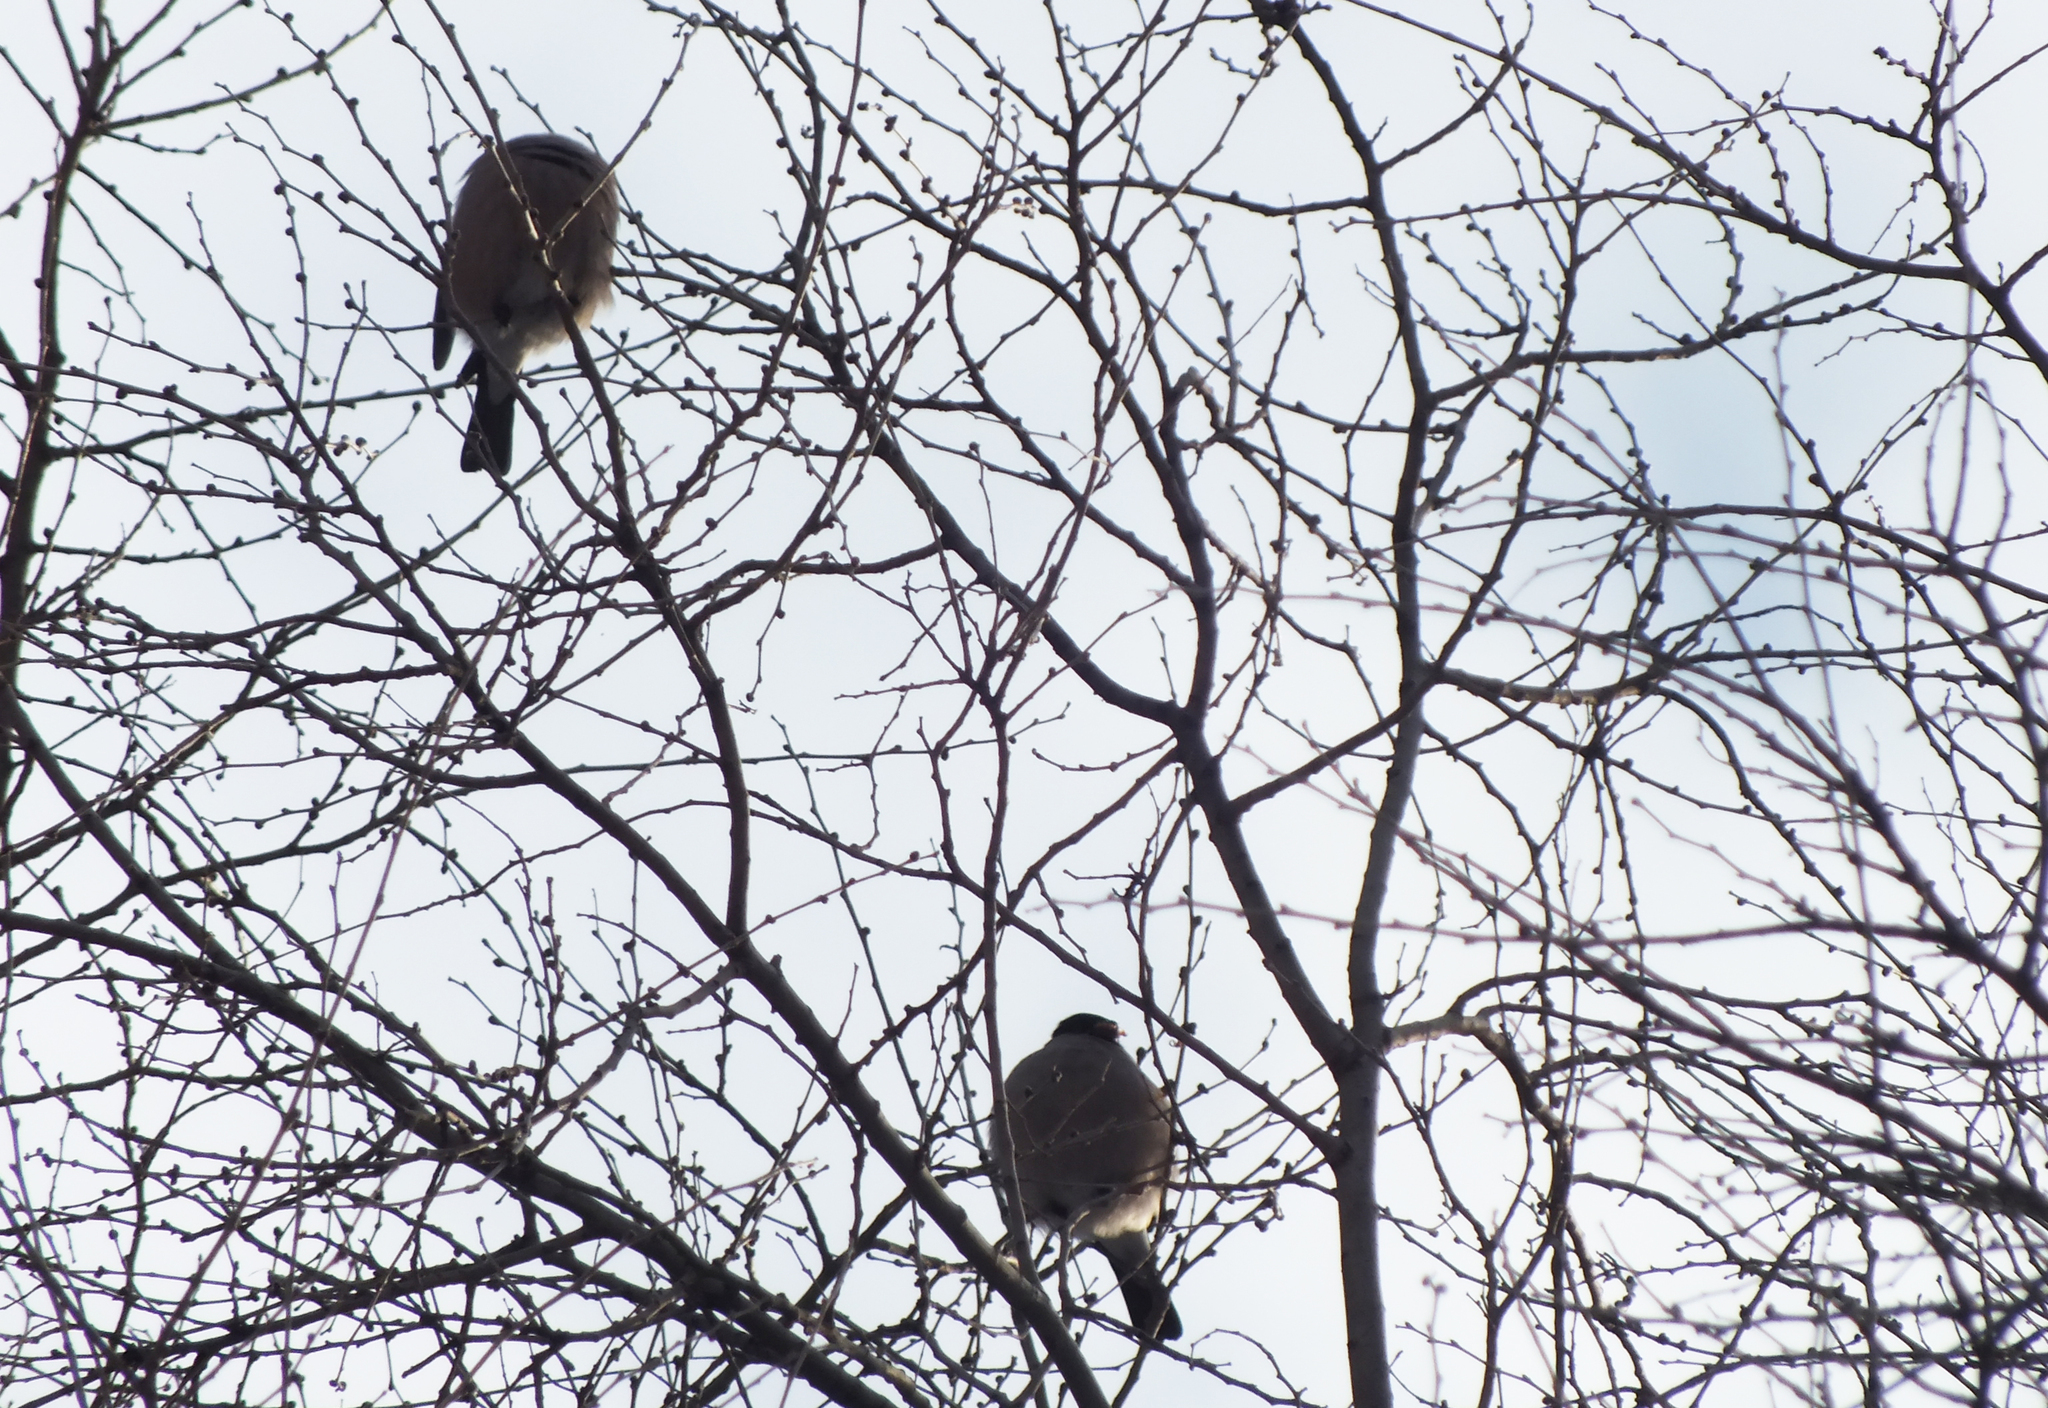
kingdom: Animalia
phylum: Chordata
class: Aves
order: Passeriformes
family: Fringillidae
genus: Pyrrhula
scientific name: Pyrrhula pyrrhula
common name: Eurasian bullfinch
